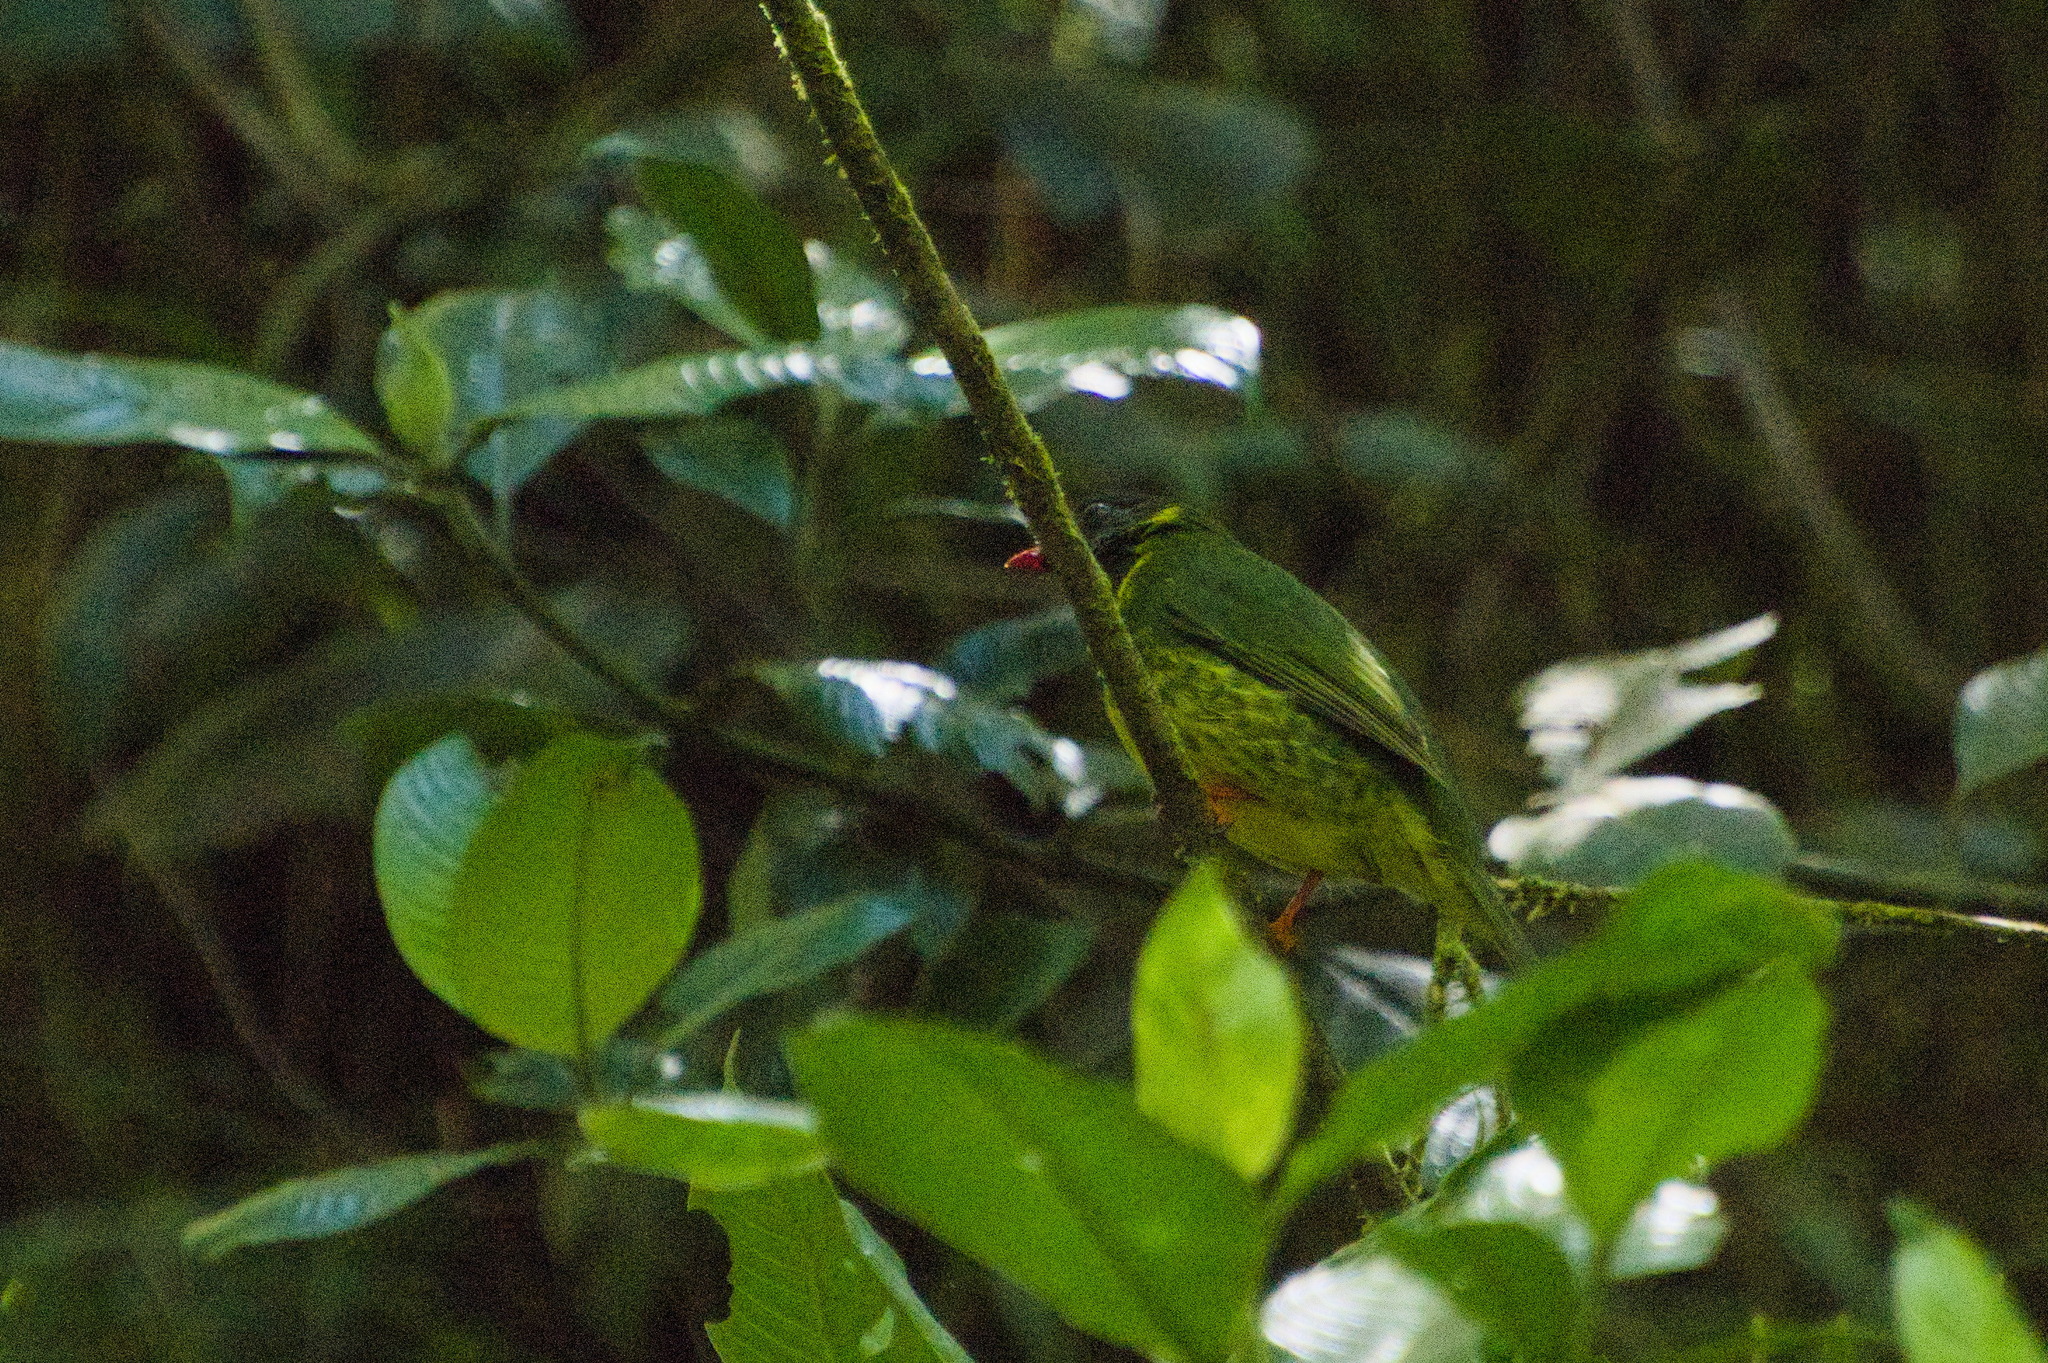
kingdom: Animalia
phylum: Chordata
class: Aves
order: Passeriformes
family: Cotingidae
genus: Pipreola
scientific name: Pipreola riefferii
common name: Green-and-black fruiteater
